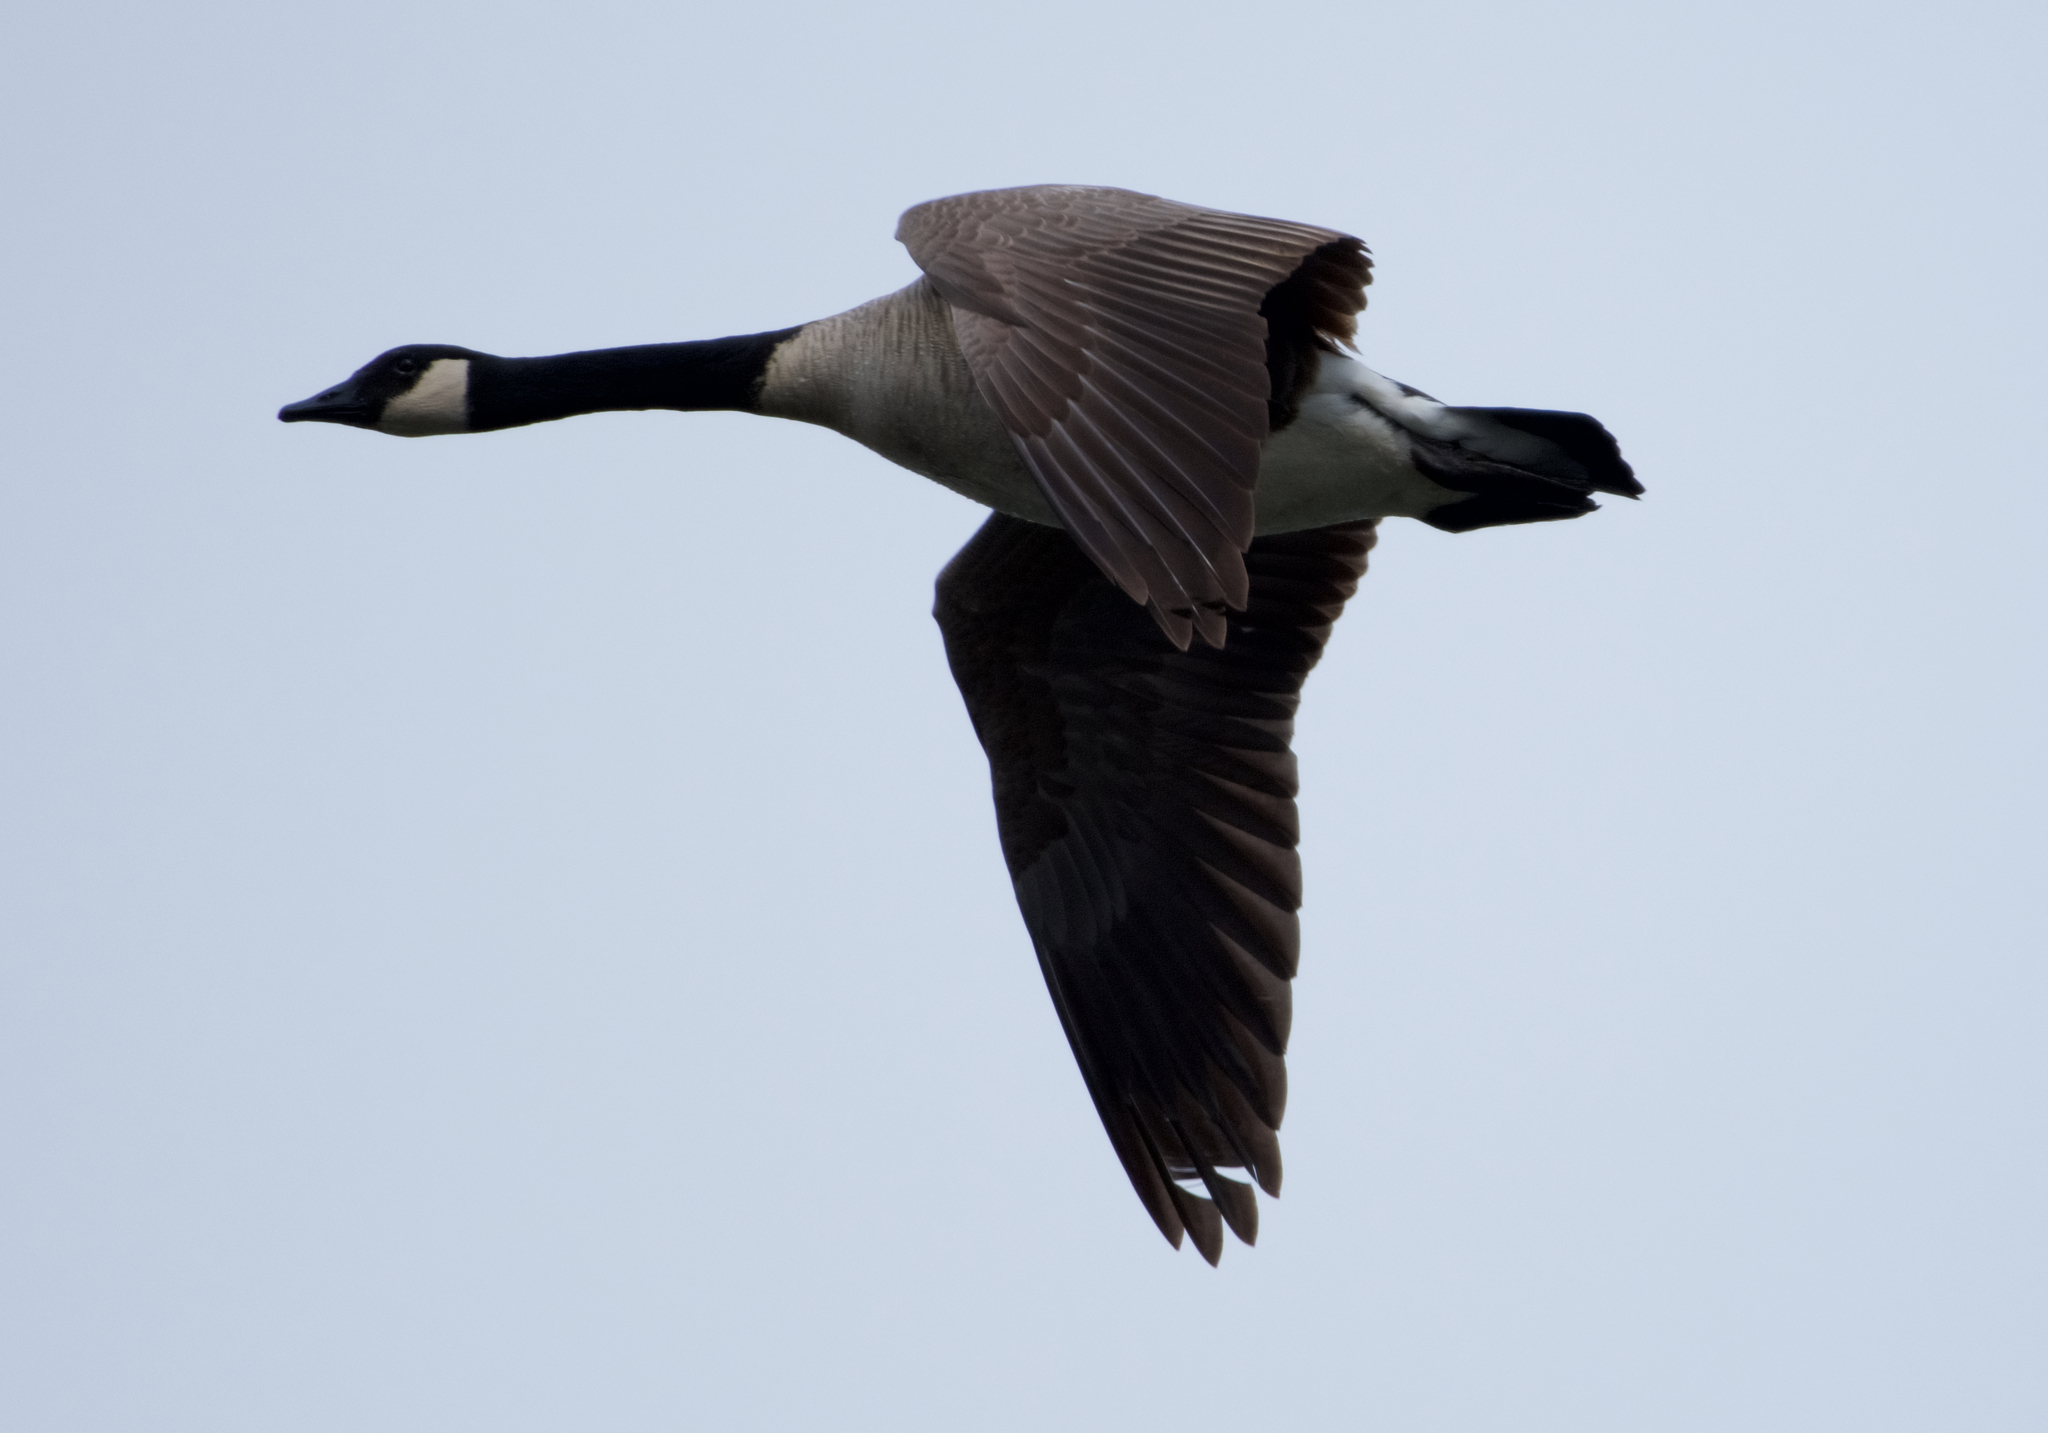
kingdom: Animalia
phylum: Chordata
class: Aves
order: Anseriformes
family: Anatidae
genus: Branta
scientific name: Branta canadensis
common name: Canada goose
